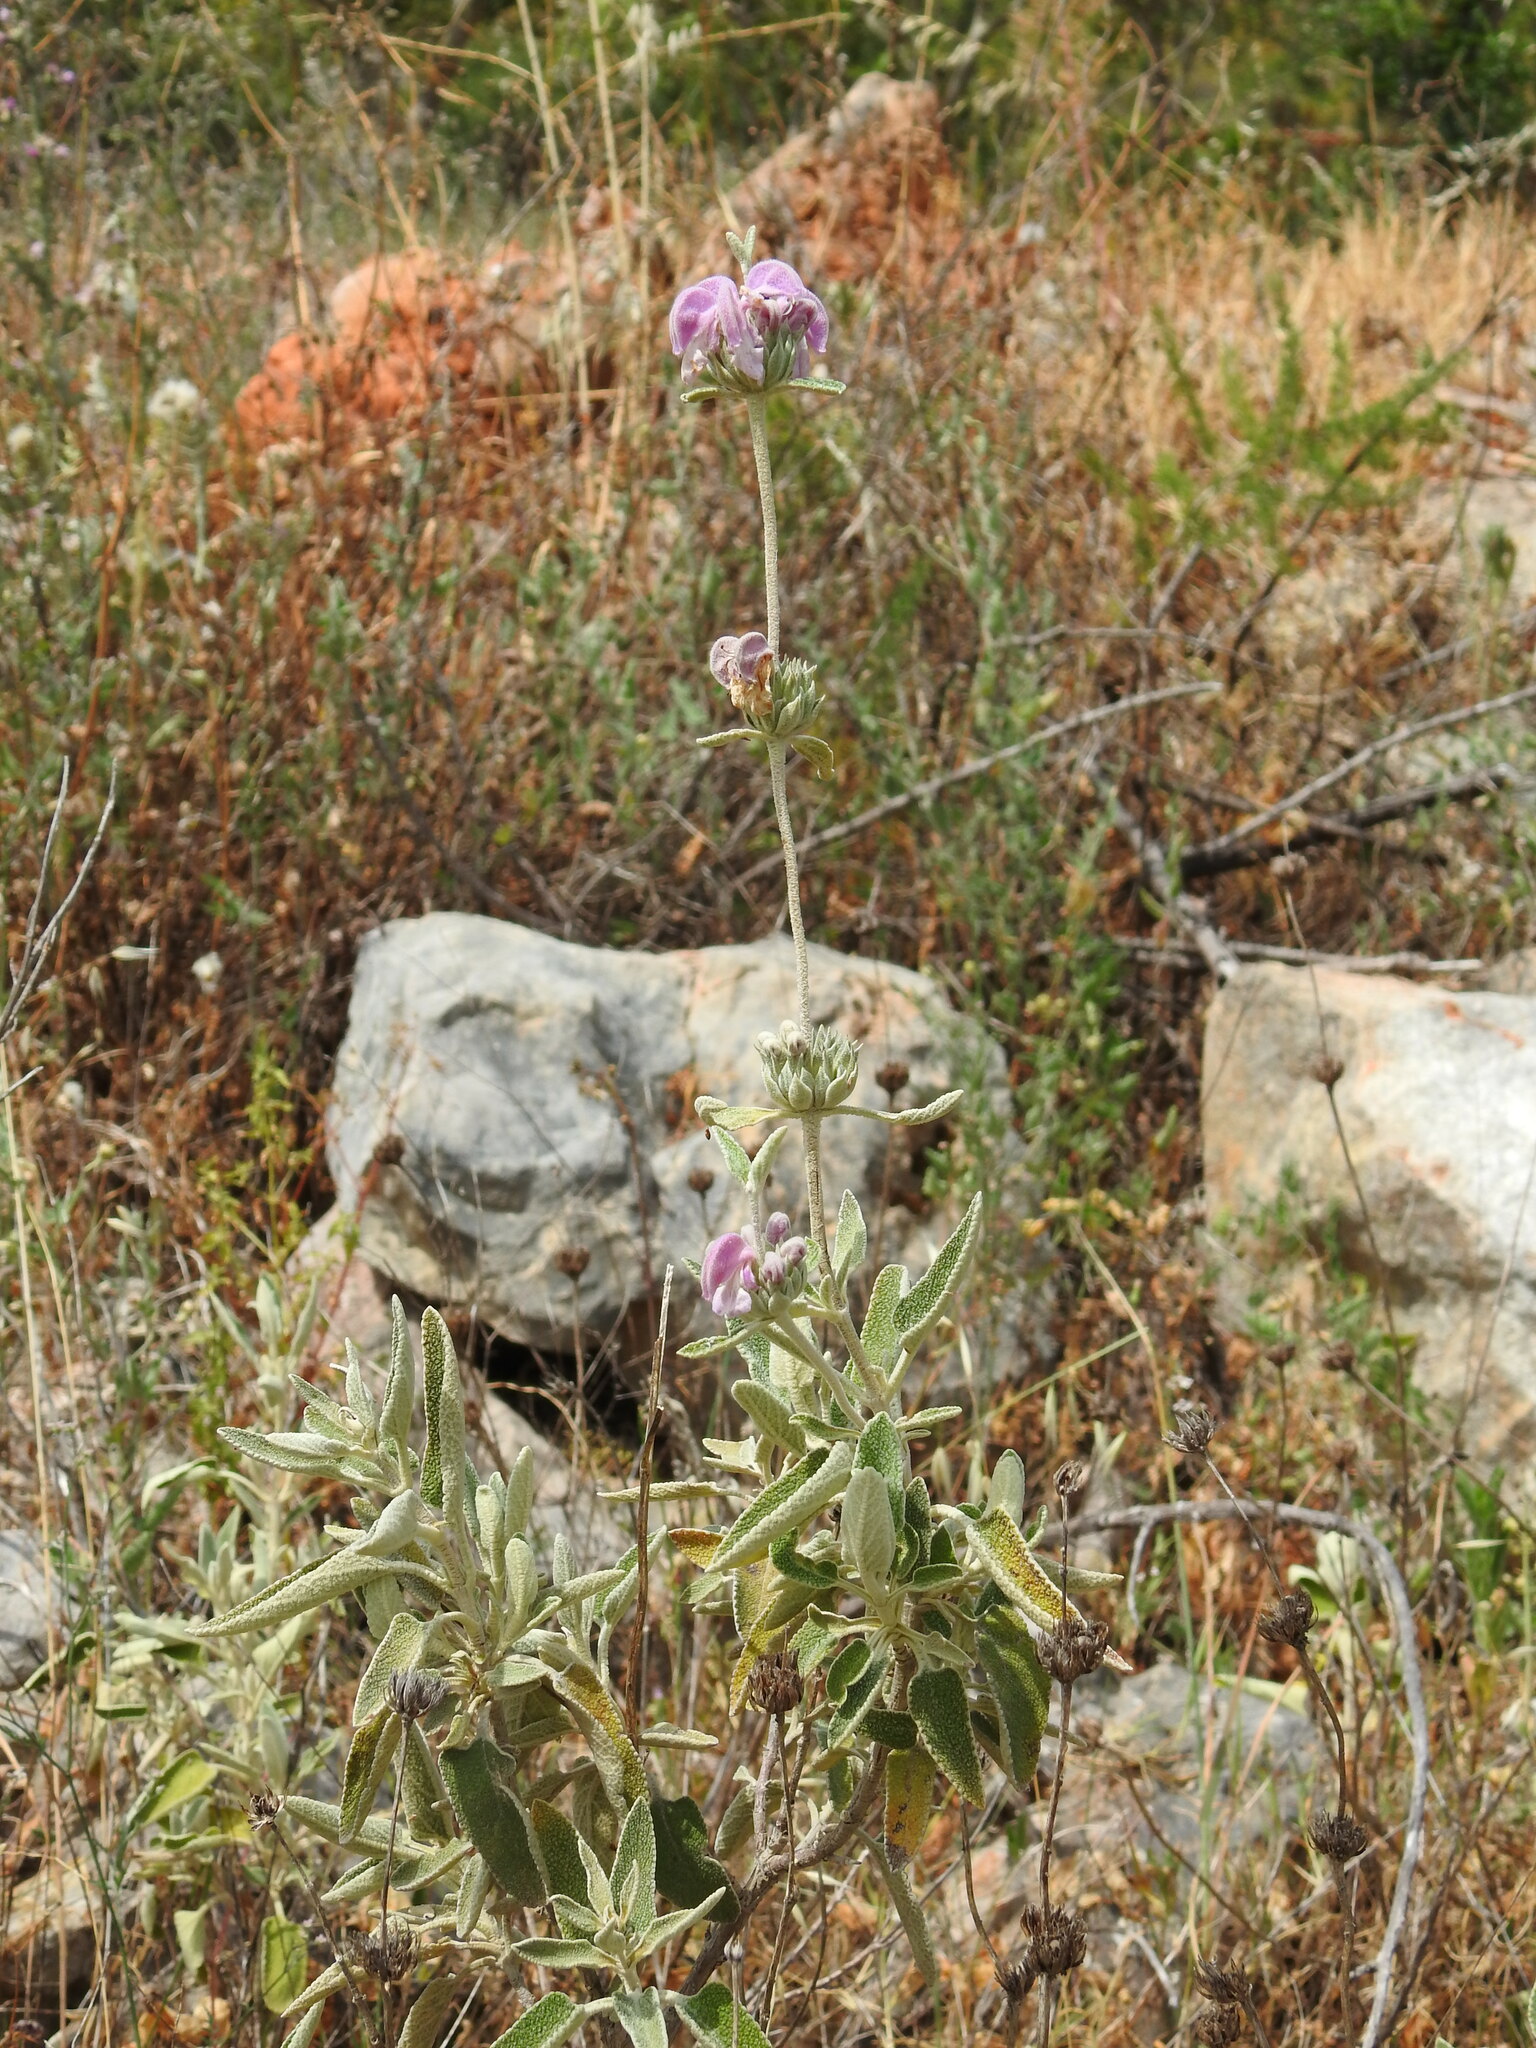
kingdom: Plantae
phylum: Tracheophyta
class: Magnoliopsida
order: Lamiales
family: Lamiaceae
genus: Phlomis
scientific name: Phlomis purpurea
